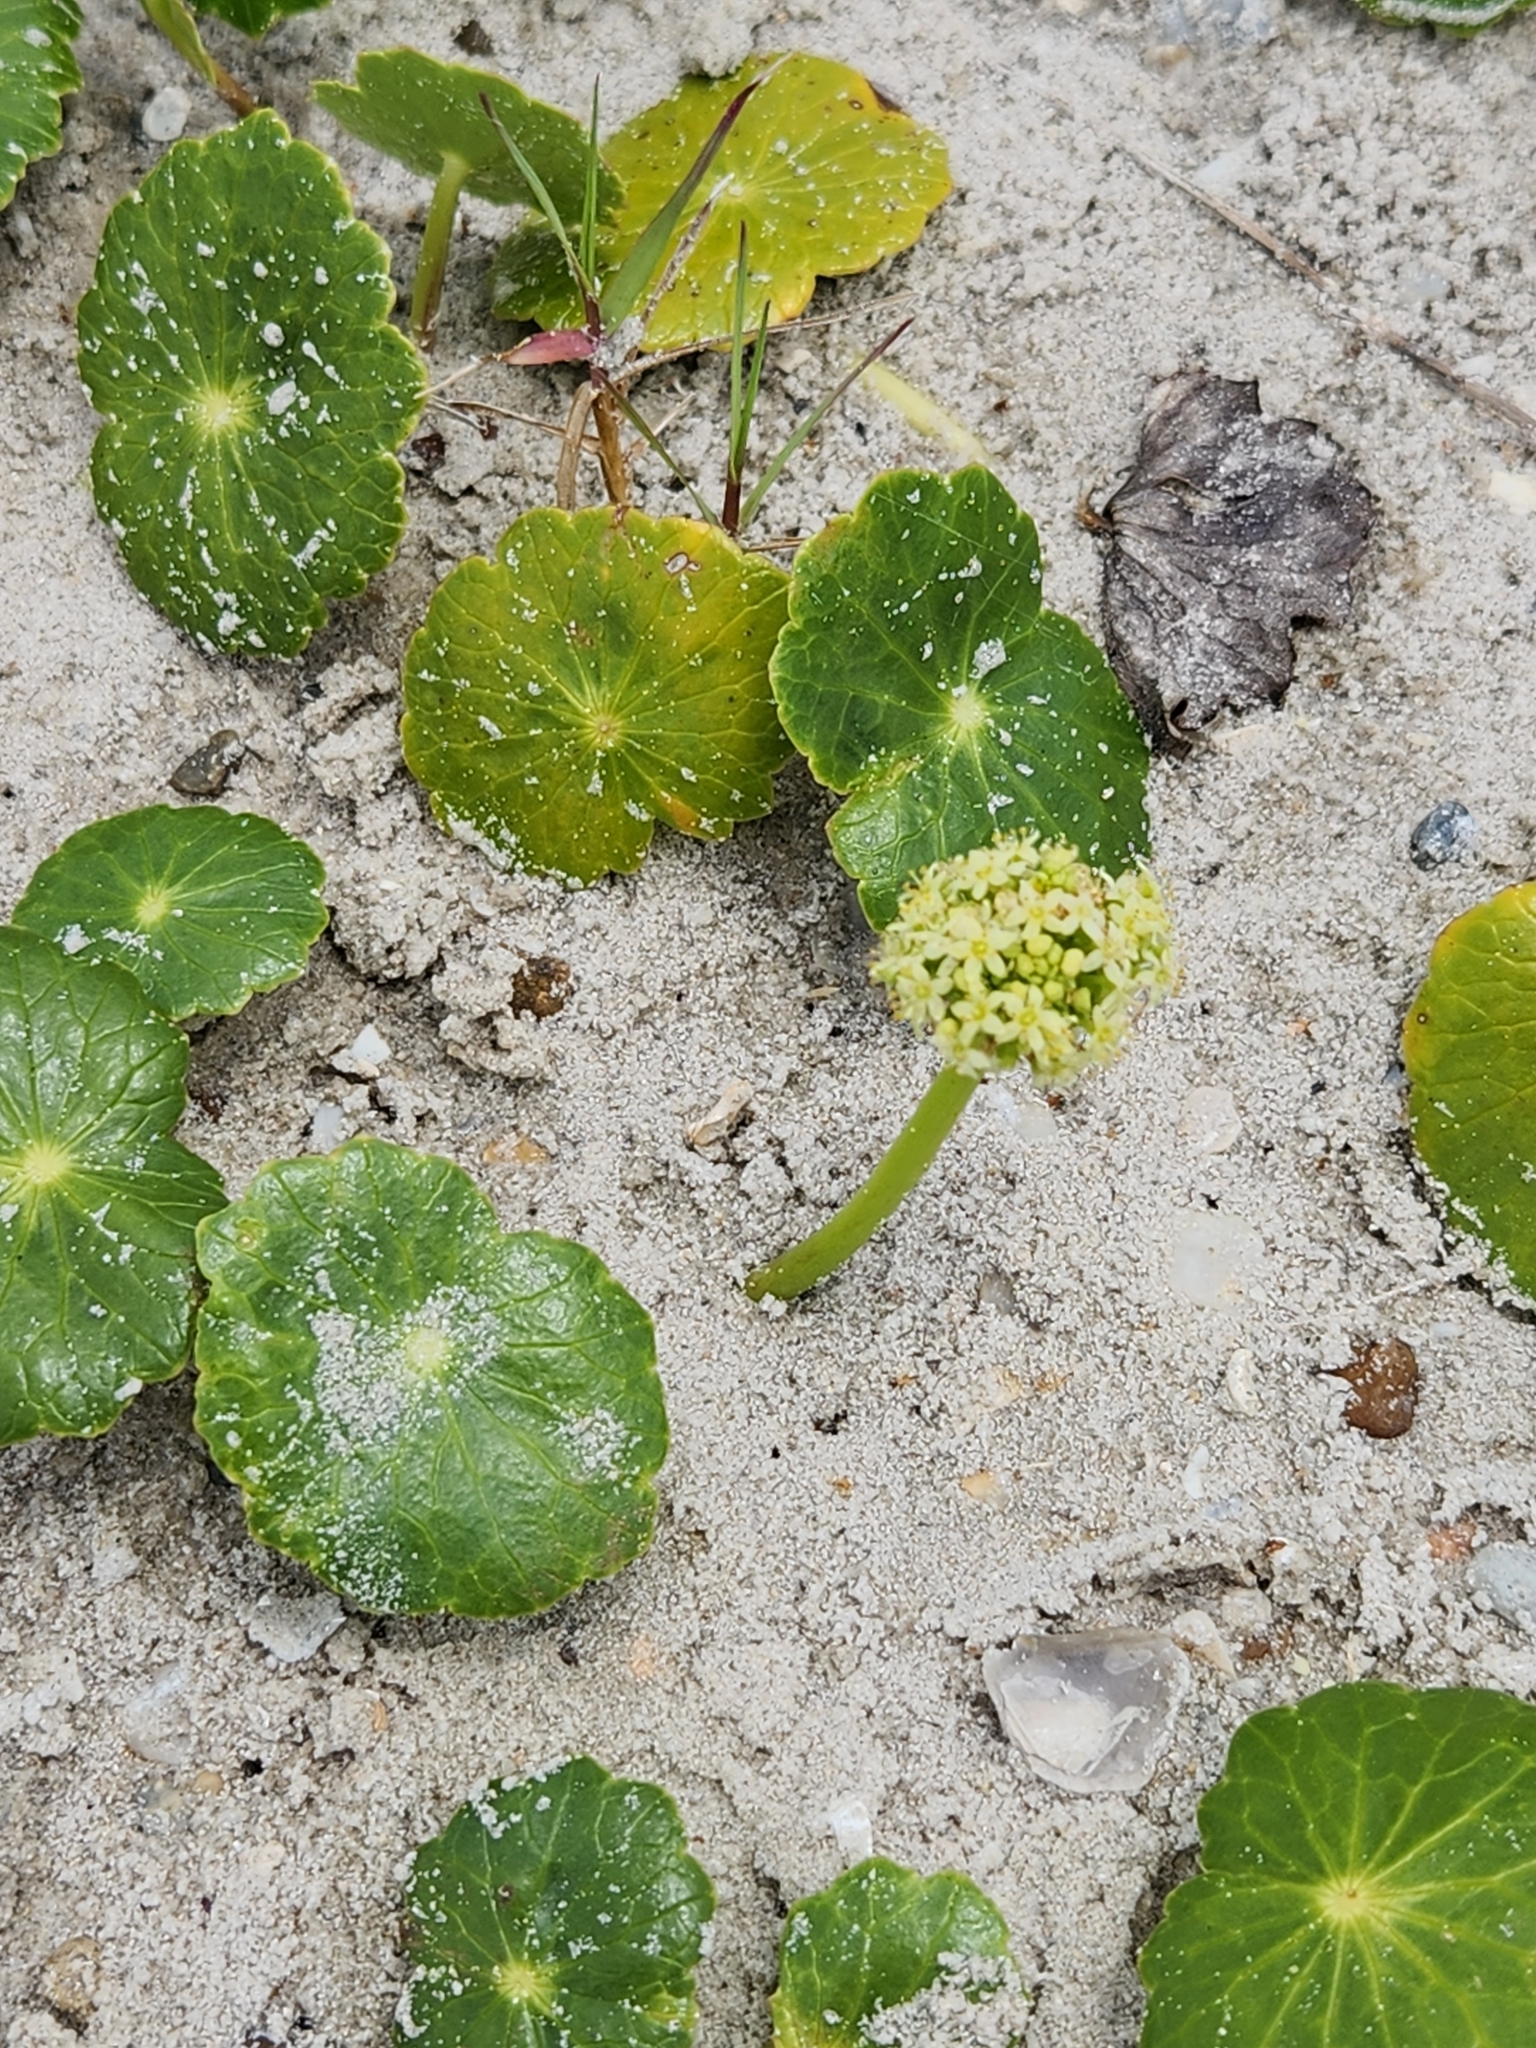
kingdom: Plantae
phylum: Tracheophyta
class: Magnoliopsida
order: Apiales
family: Araliaceae
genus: Hydrocotyle
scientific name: Hydrocotyle bonariensis
